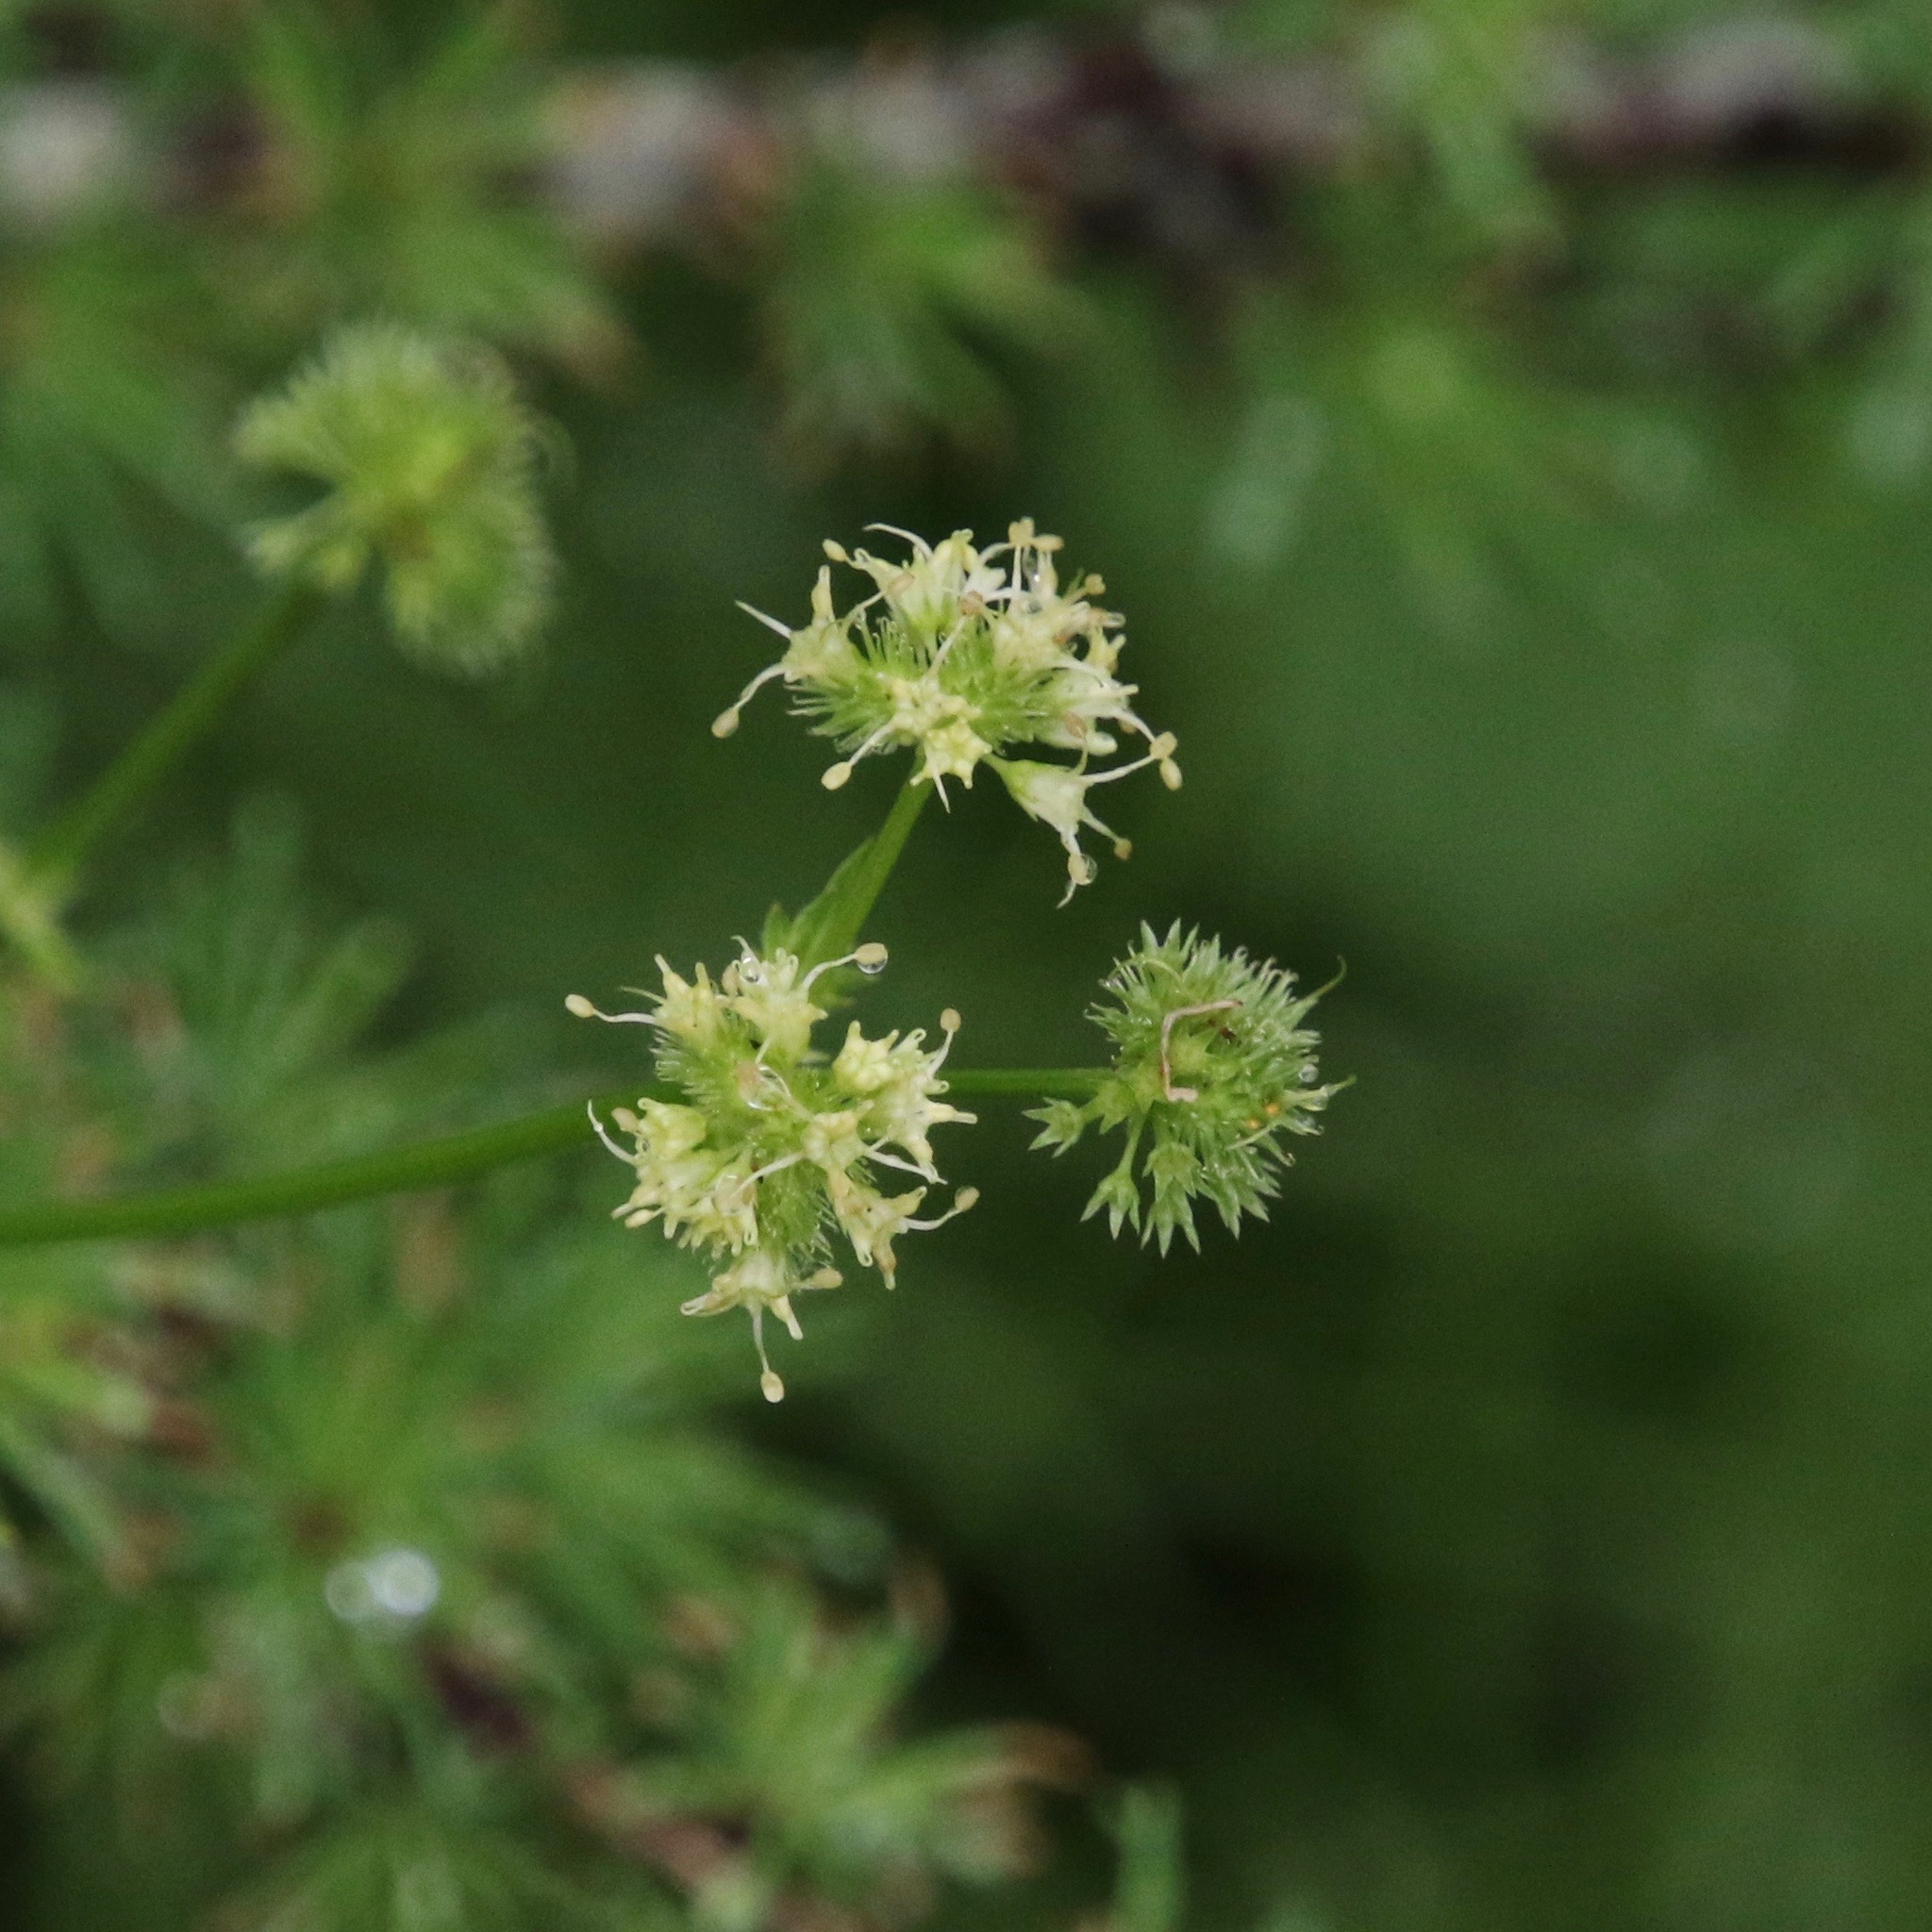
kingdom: Plantae
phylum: Tracheophyta
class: Magnoliopsida
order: Apiales
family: Apiaceae
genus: Sanicula
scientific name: Sanicula marilandica
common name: Black snakeroot
